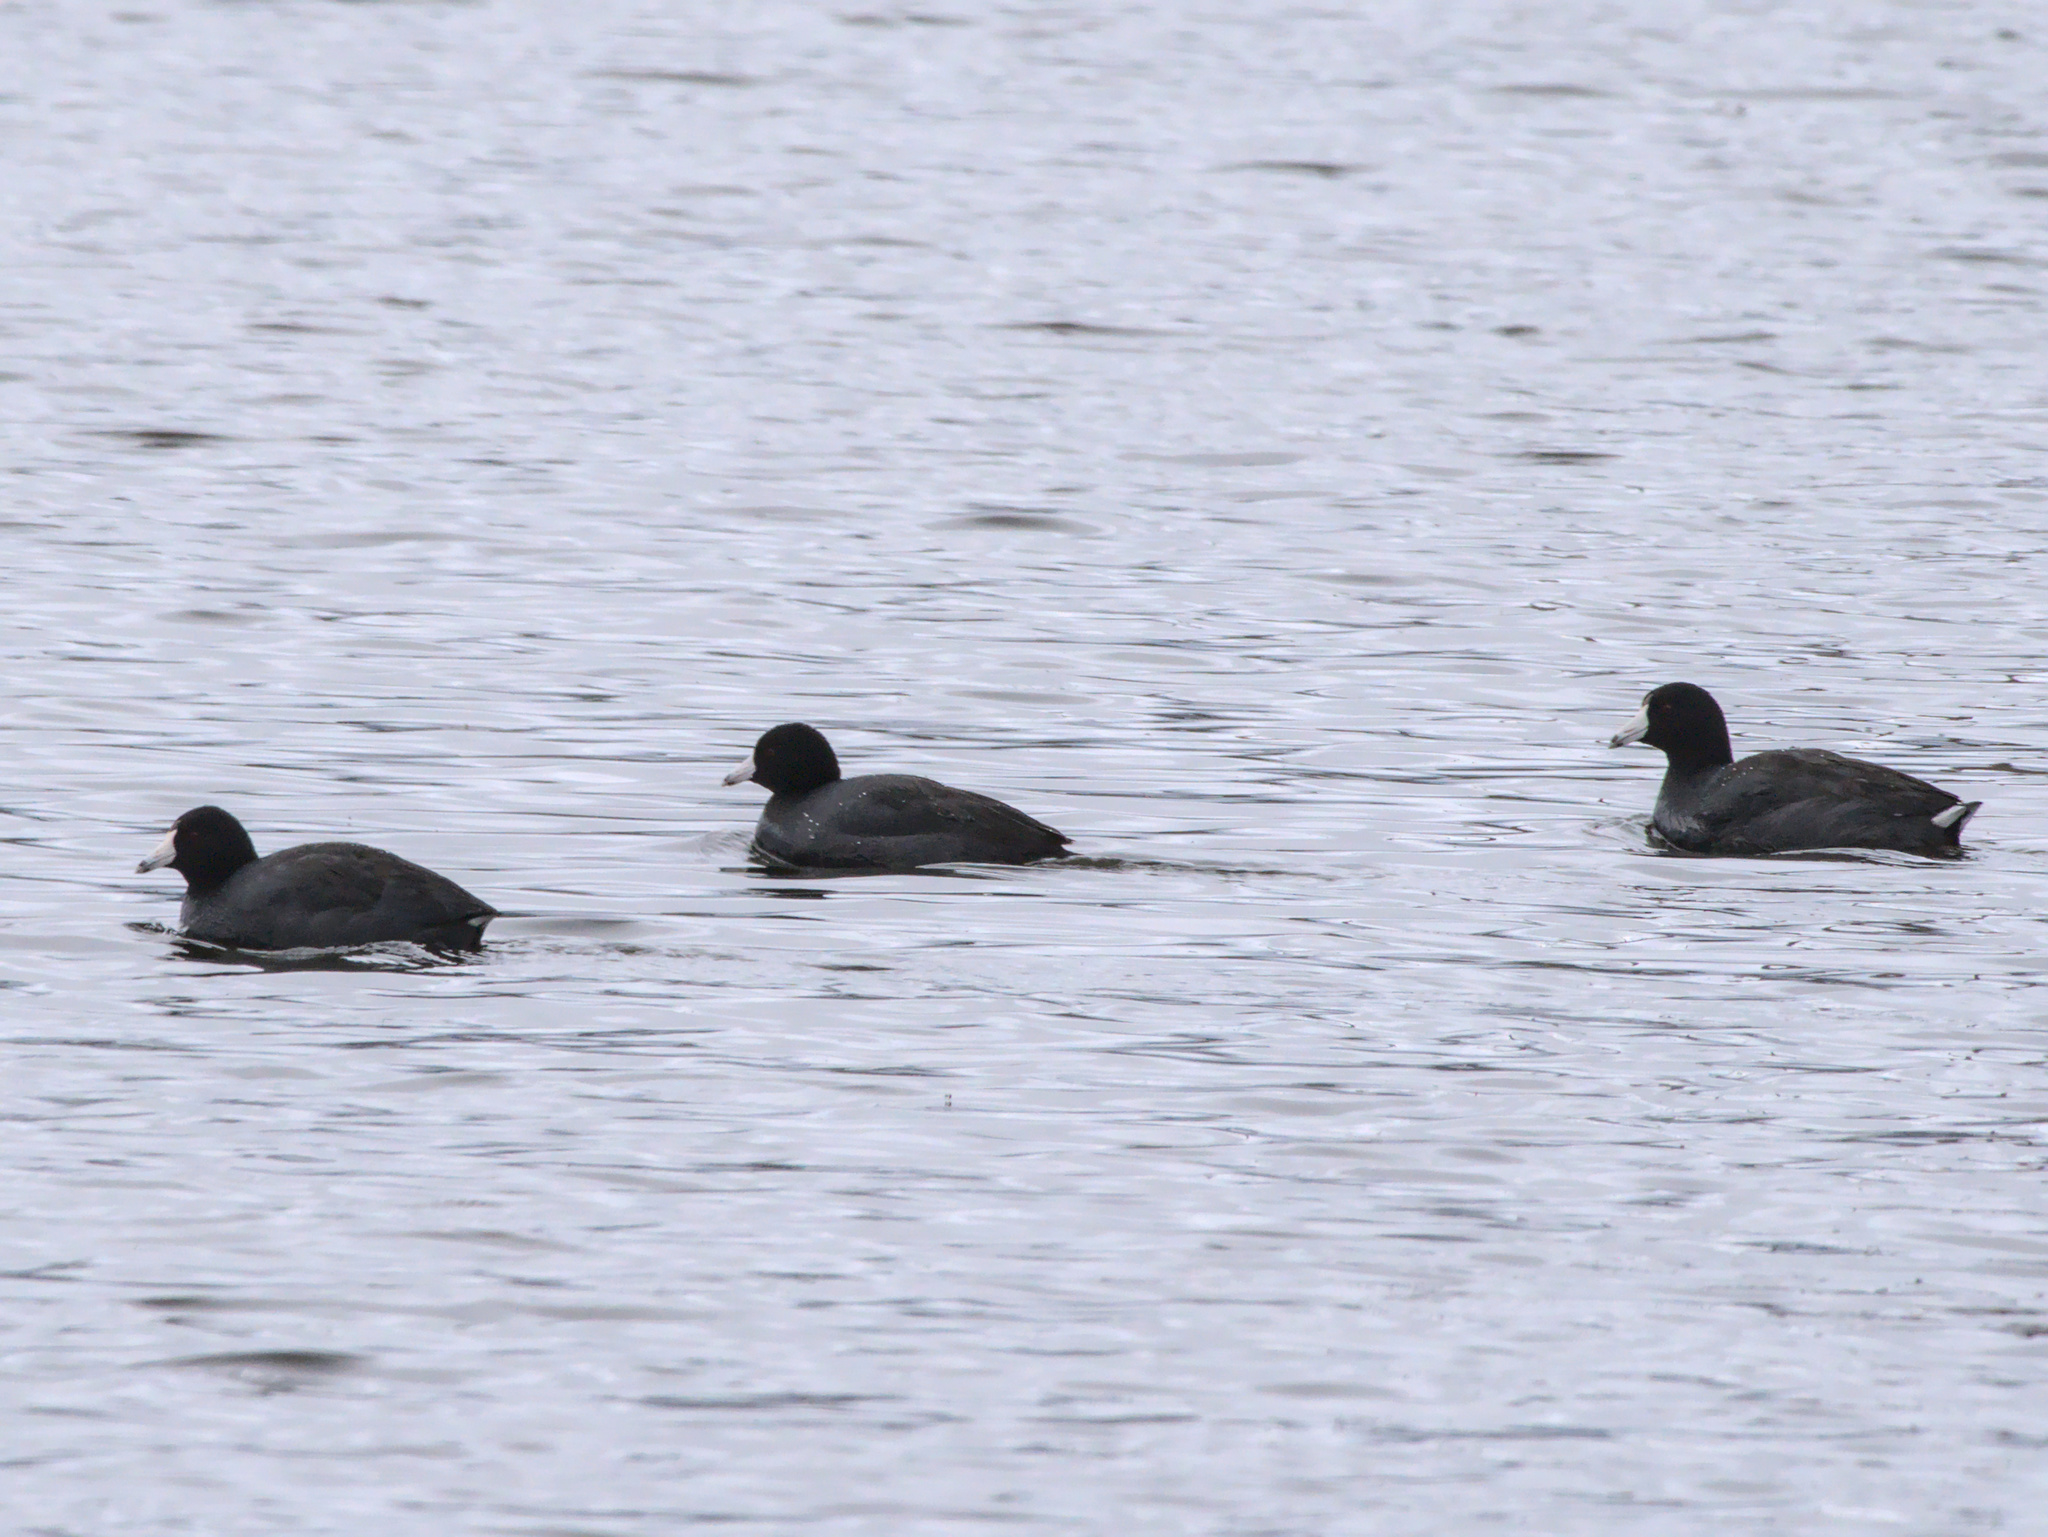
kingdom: Animalia
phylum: Chordata
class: Aves
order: Gruiformes
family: Rallidae
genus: Fulica
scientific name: Fulica americana
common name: American coot
